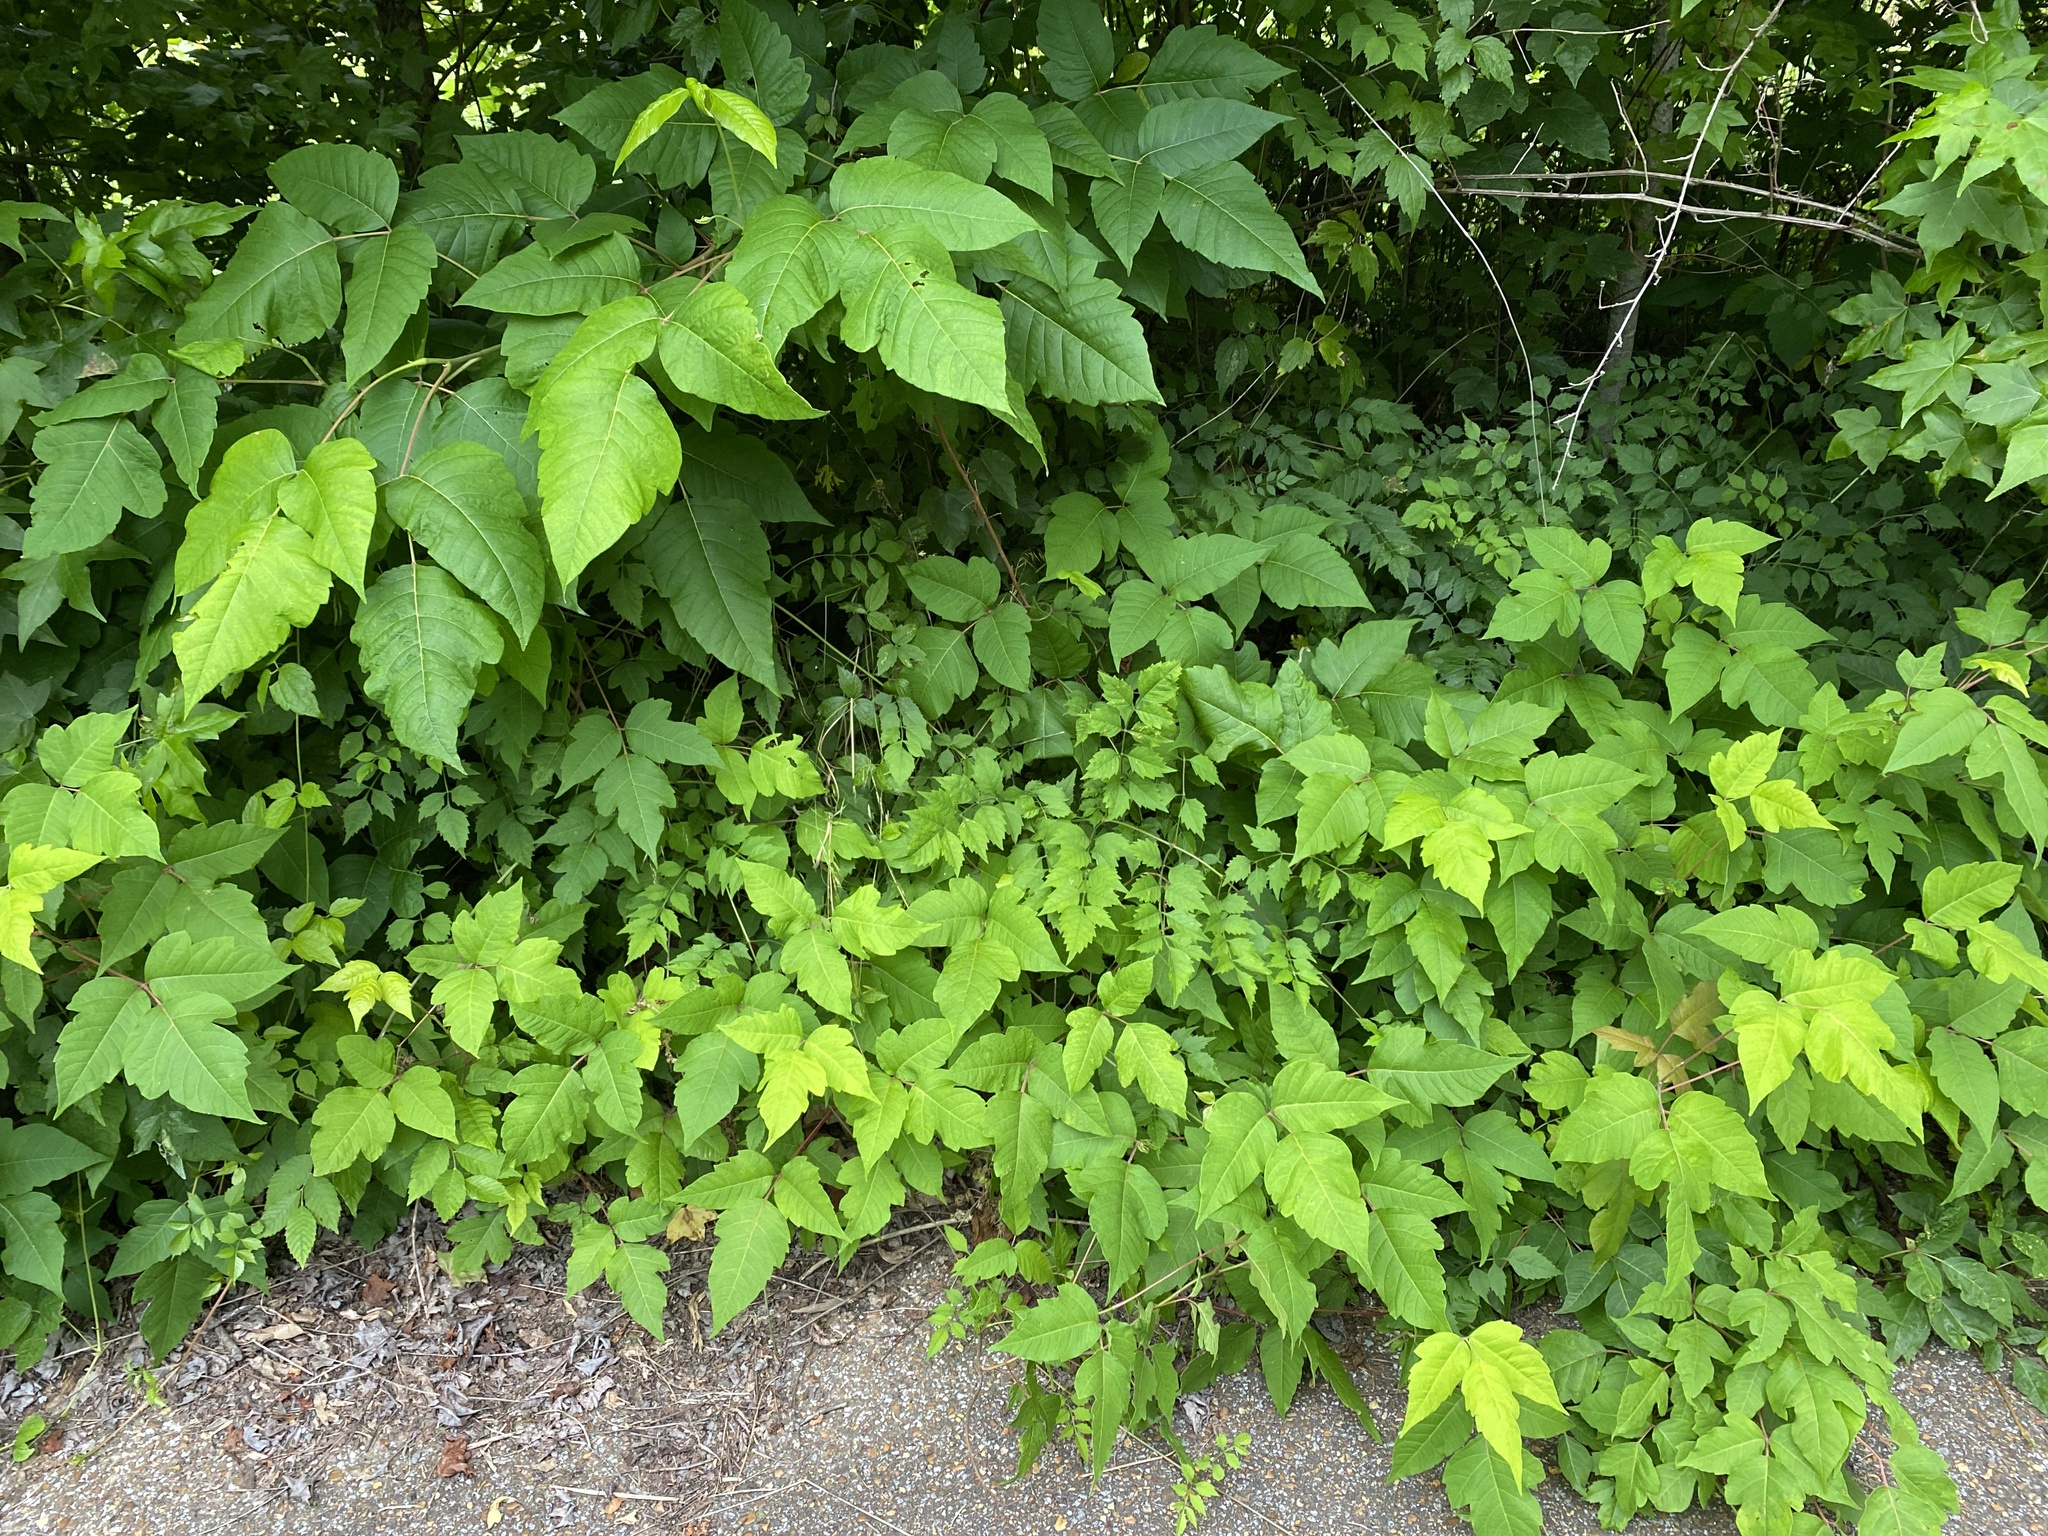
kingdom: Plantae
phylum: Tracheophyta
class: Magnoliopsida
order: Sapindales
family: Anacardiaceae
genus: Toxicodendron
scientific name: Toxicodendron radicans
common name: Poison ivy
